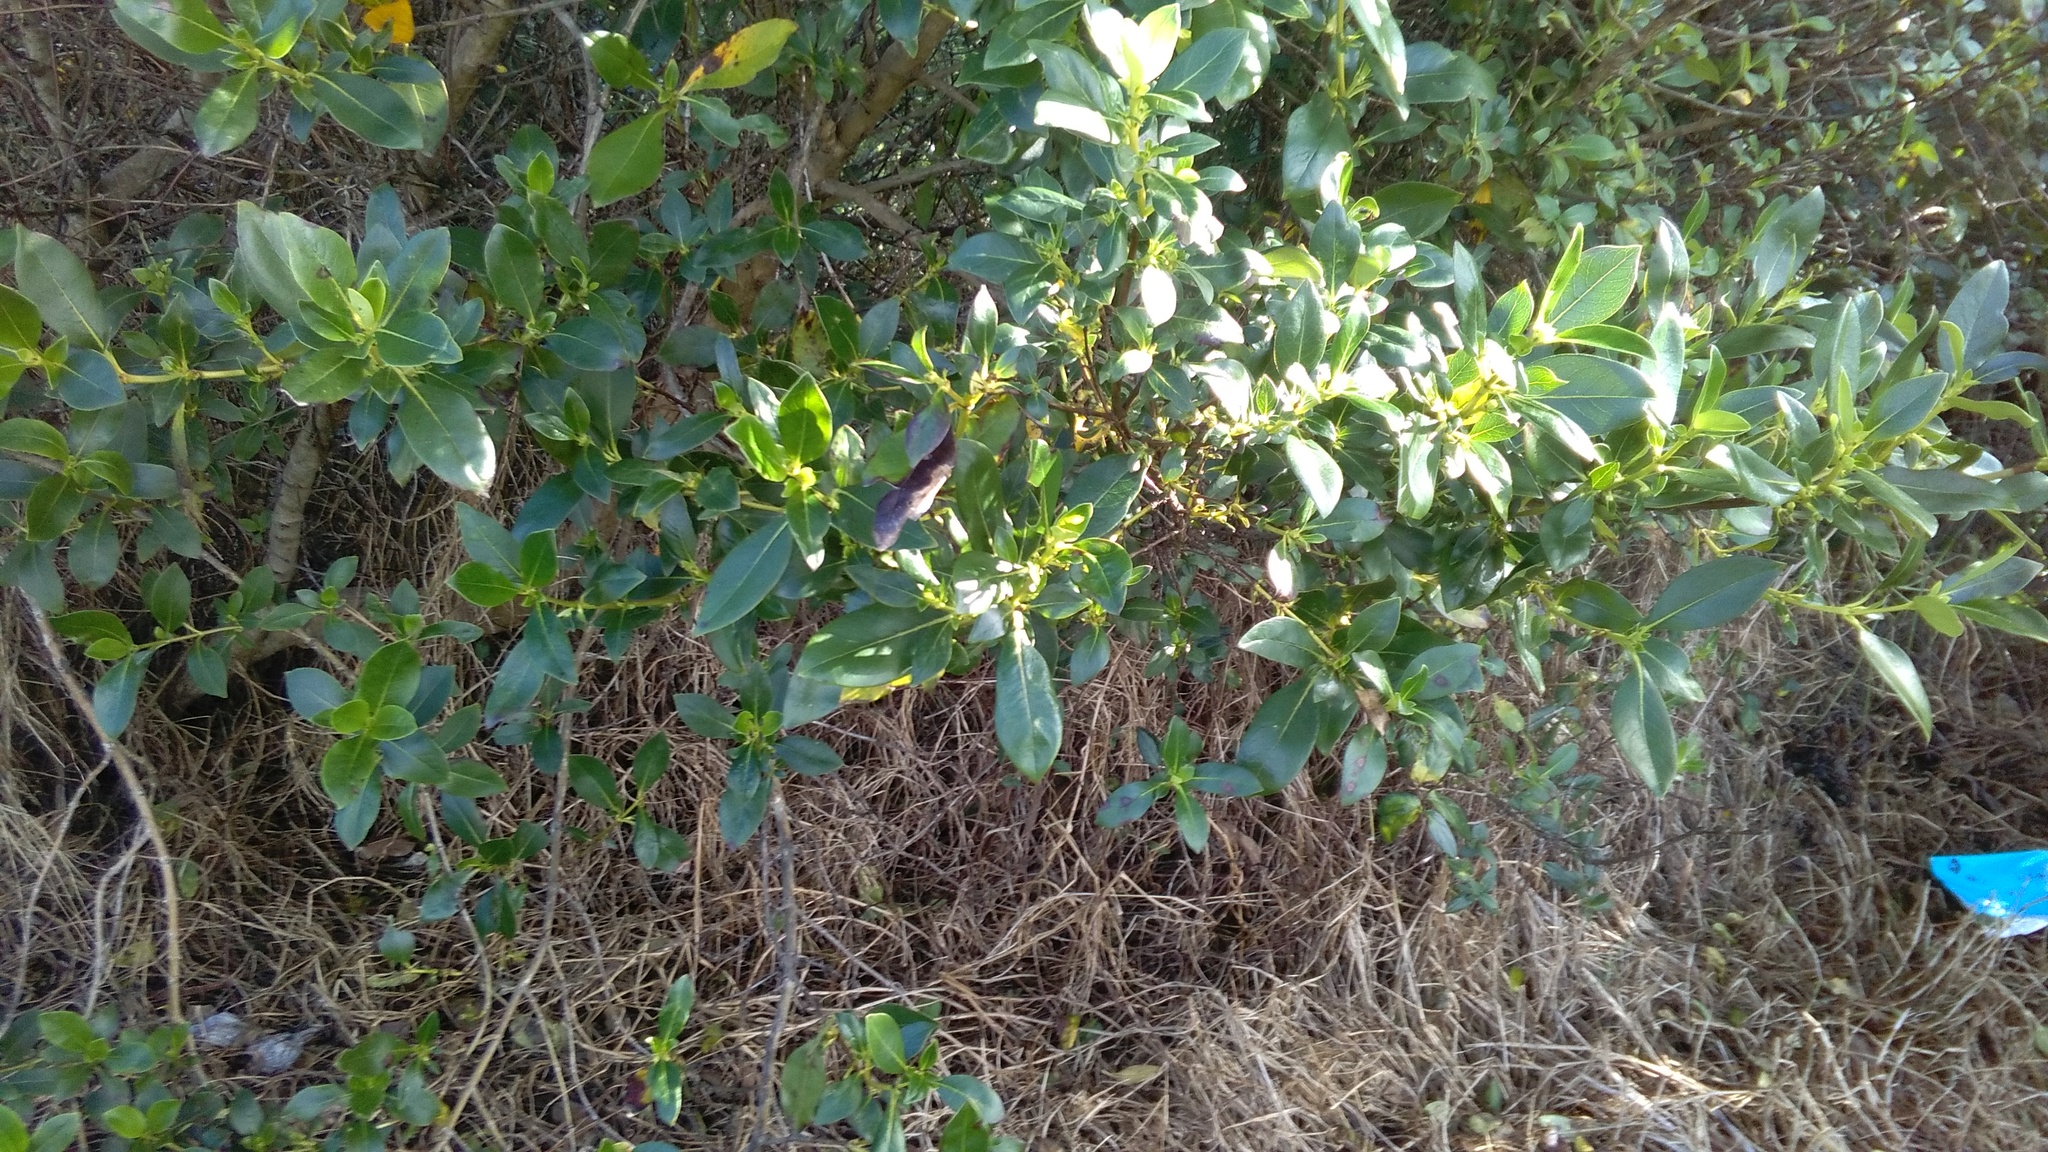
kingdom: Plantae
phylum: Tracheophyta
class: Magnoliopsida
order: Gentianales
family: Rubiaceae
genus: Coprosma
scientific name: Coprosma robusta
